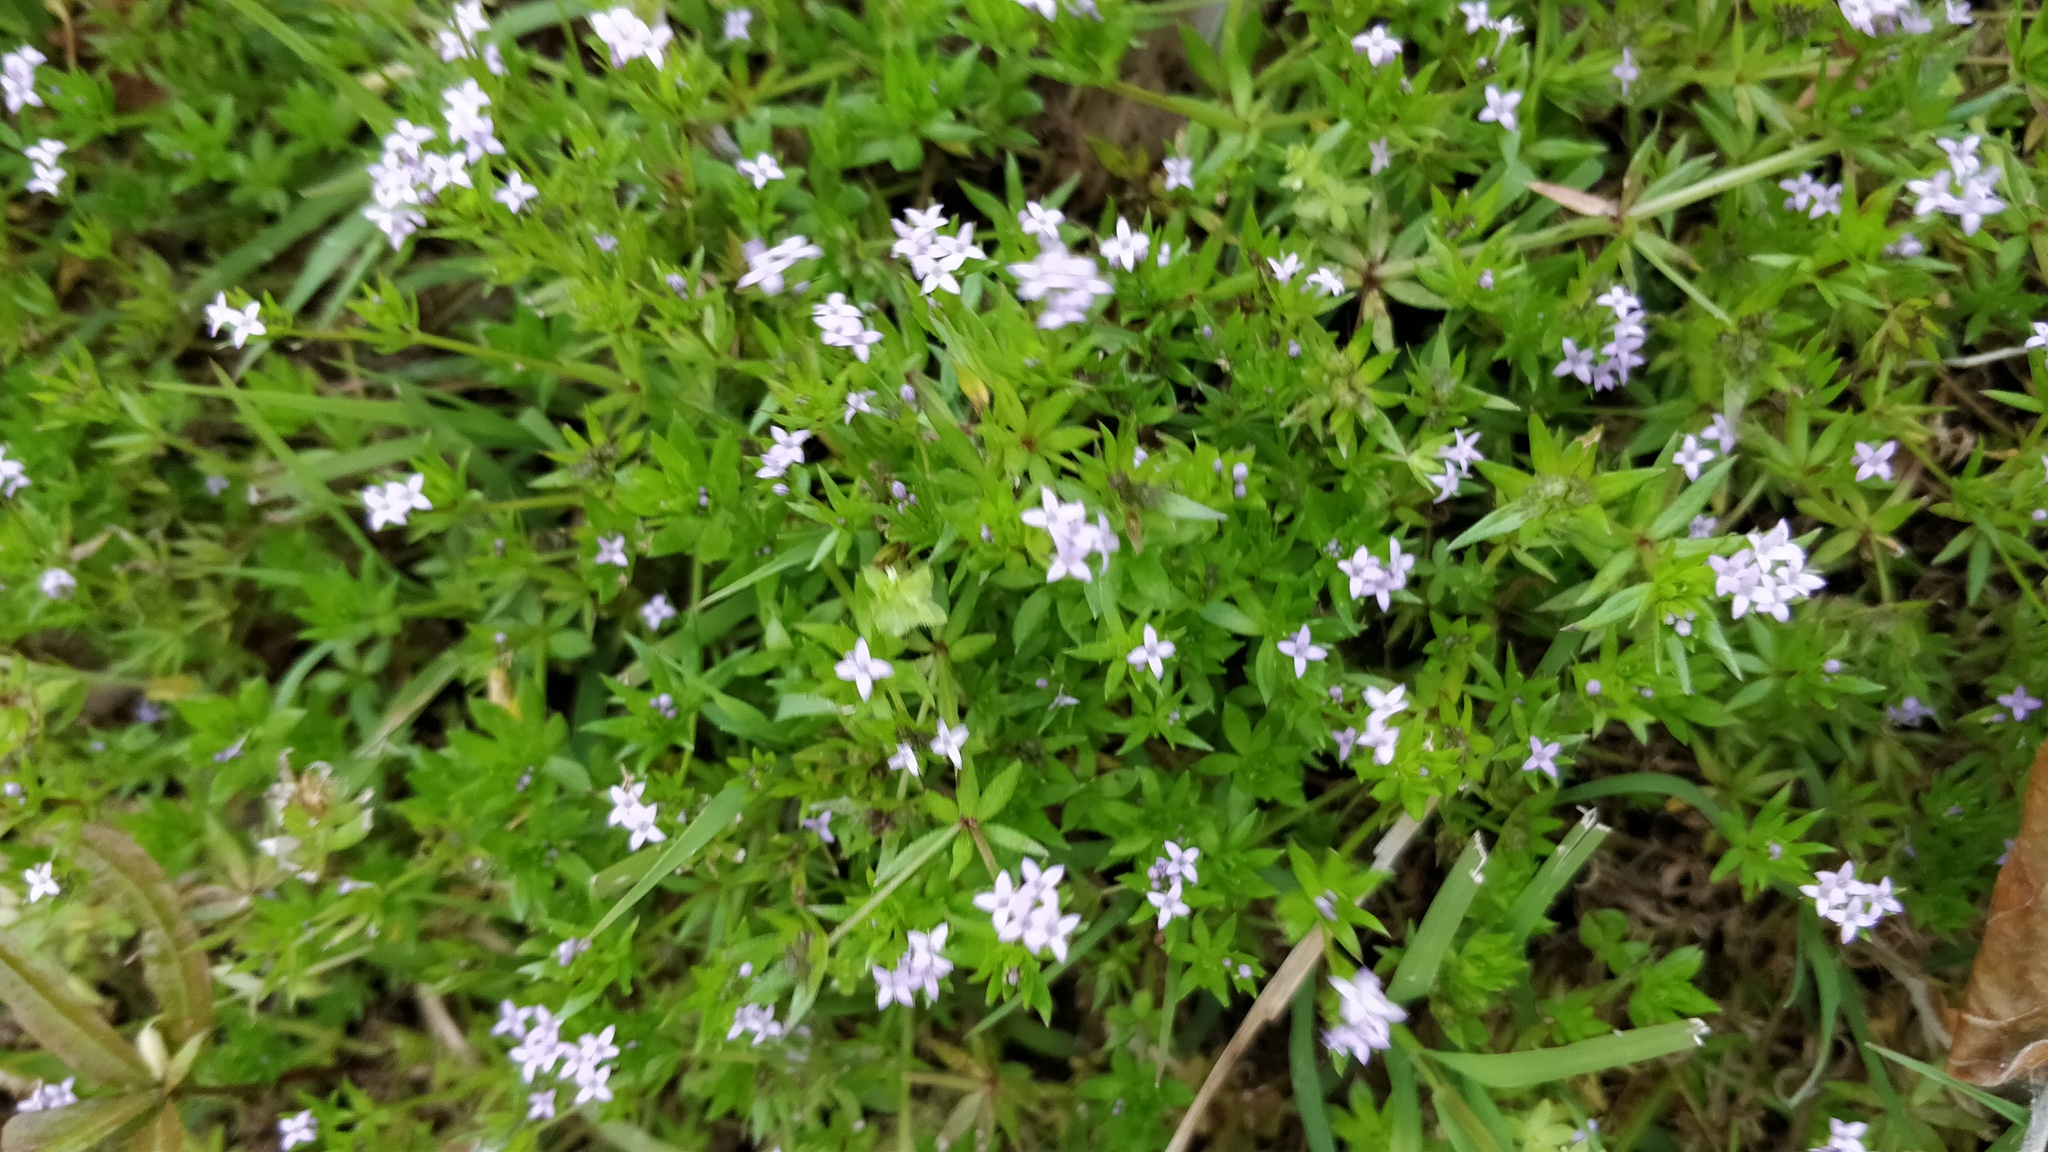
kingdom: Plantae
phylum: Tracheophyta
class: Magnoliopsida
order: Gentianales
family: Rubiaceae
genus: Sherardia
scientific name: Sherardia arvensis
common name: Field madder
